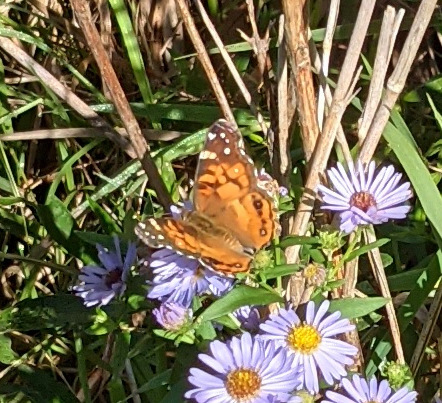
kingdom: Animalia
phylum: Arthropoda
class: Insecta
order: Lepidoptera
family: Nymphalidae
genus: Vanessa
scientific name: Vanessa virginiensis
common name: American lady
